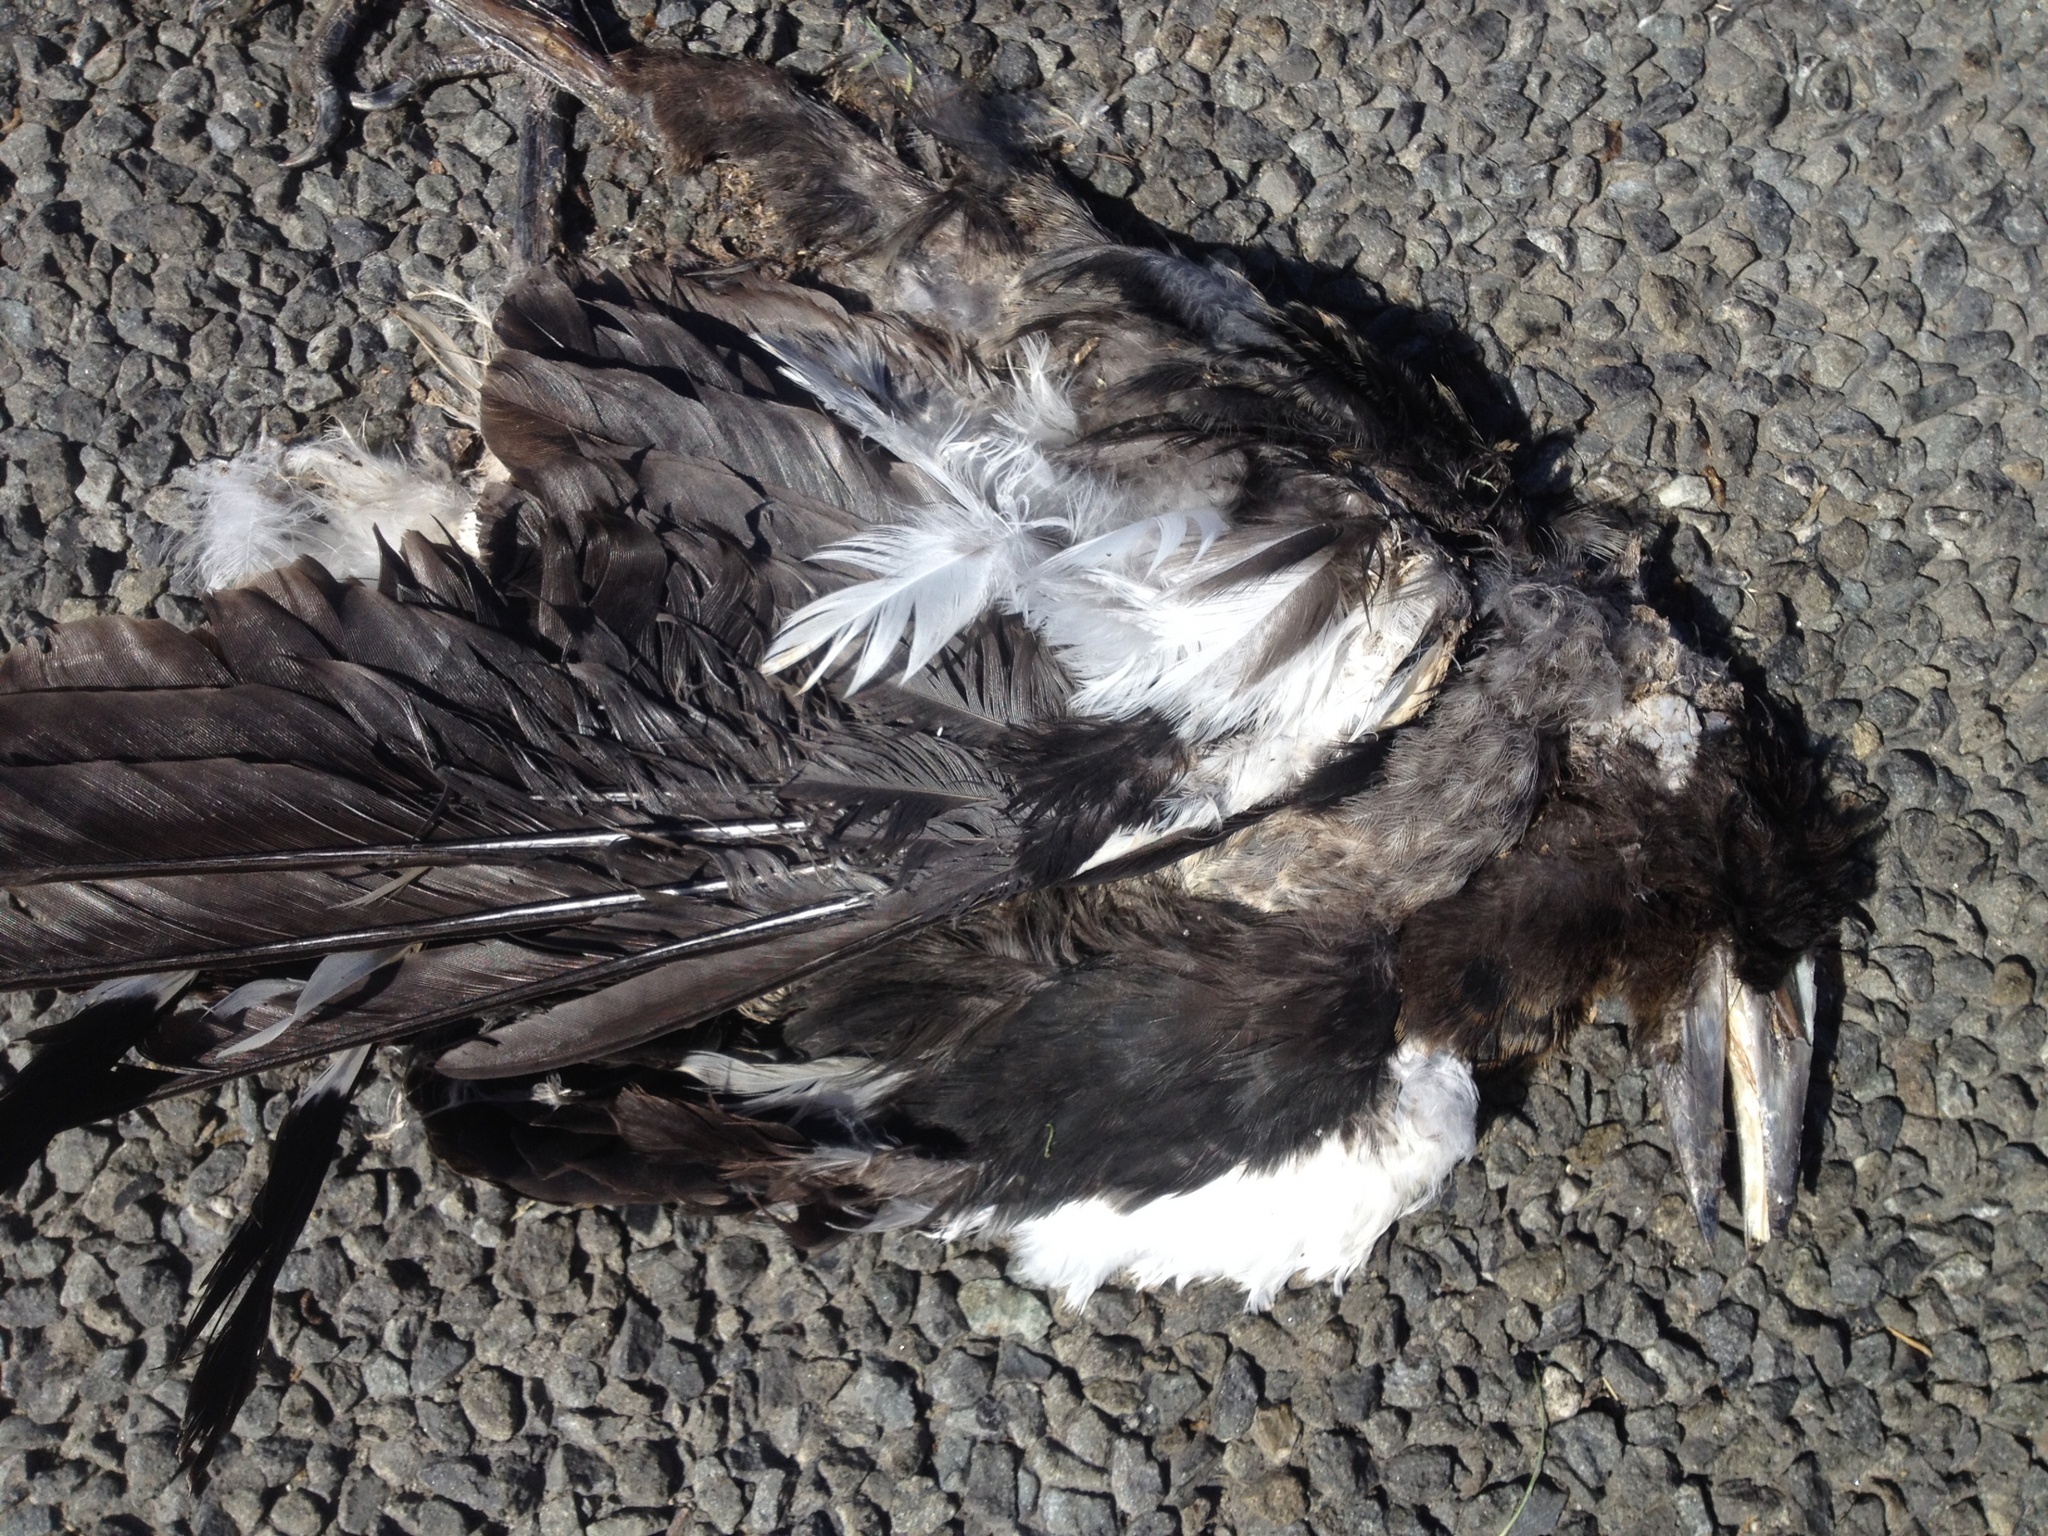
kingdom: Animalia
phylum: Chordata
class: Aves
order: Passeriformes
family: Cracticidae
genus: Gymnorhina
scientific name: Gymnorhina tibicen
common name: Australian magpie
